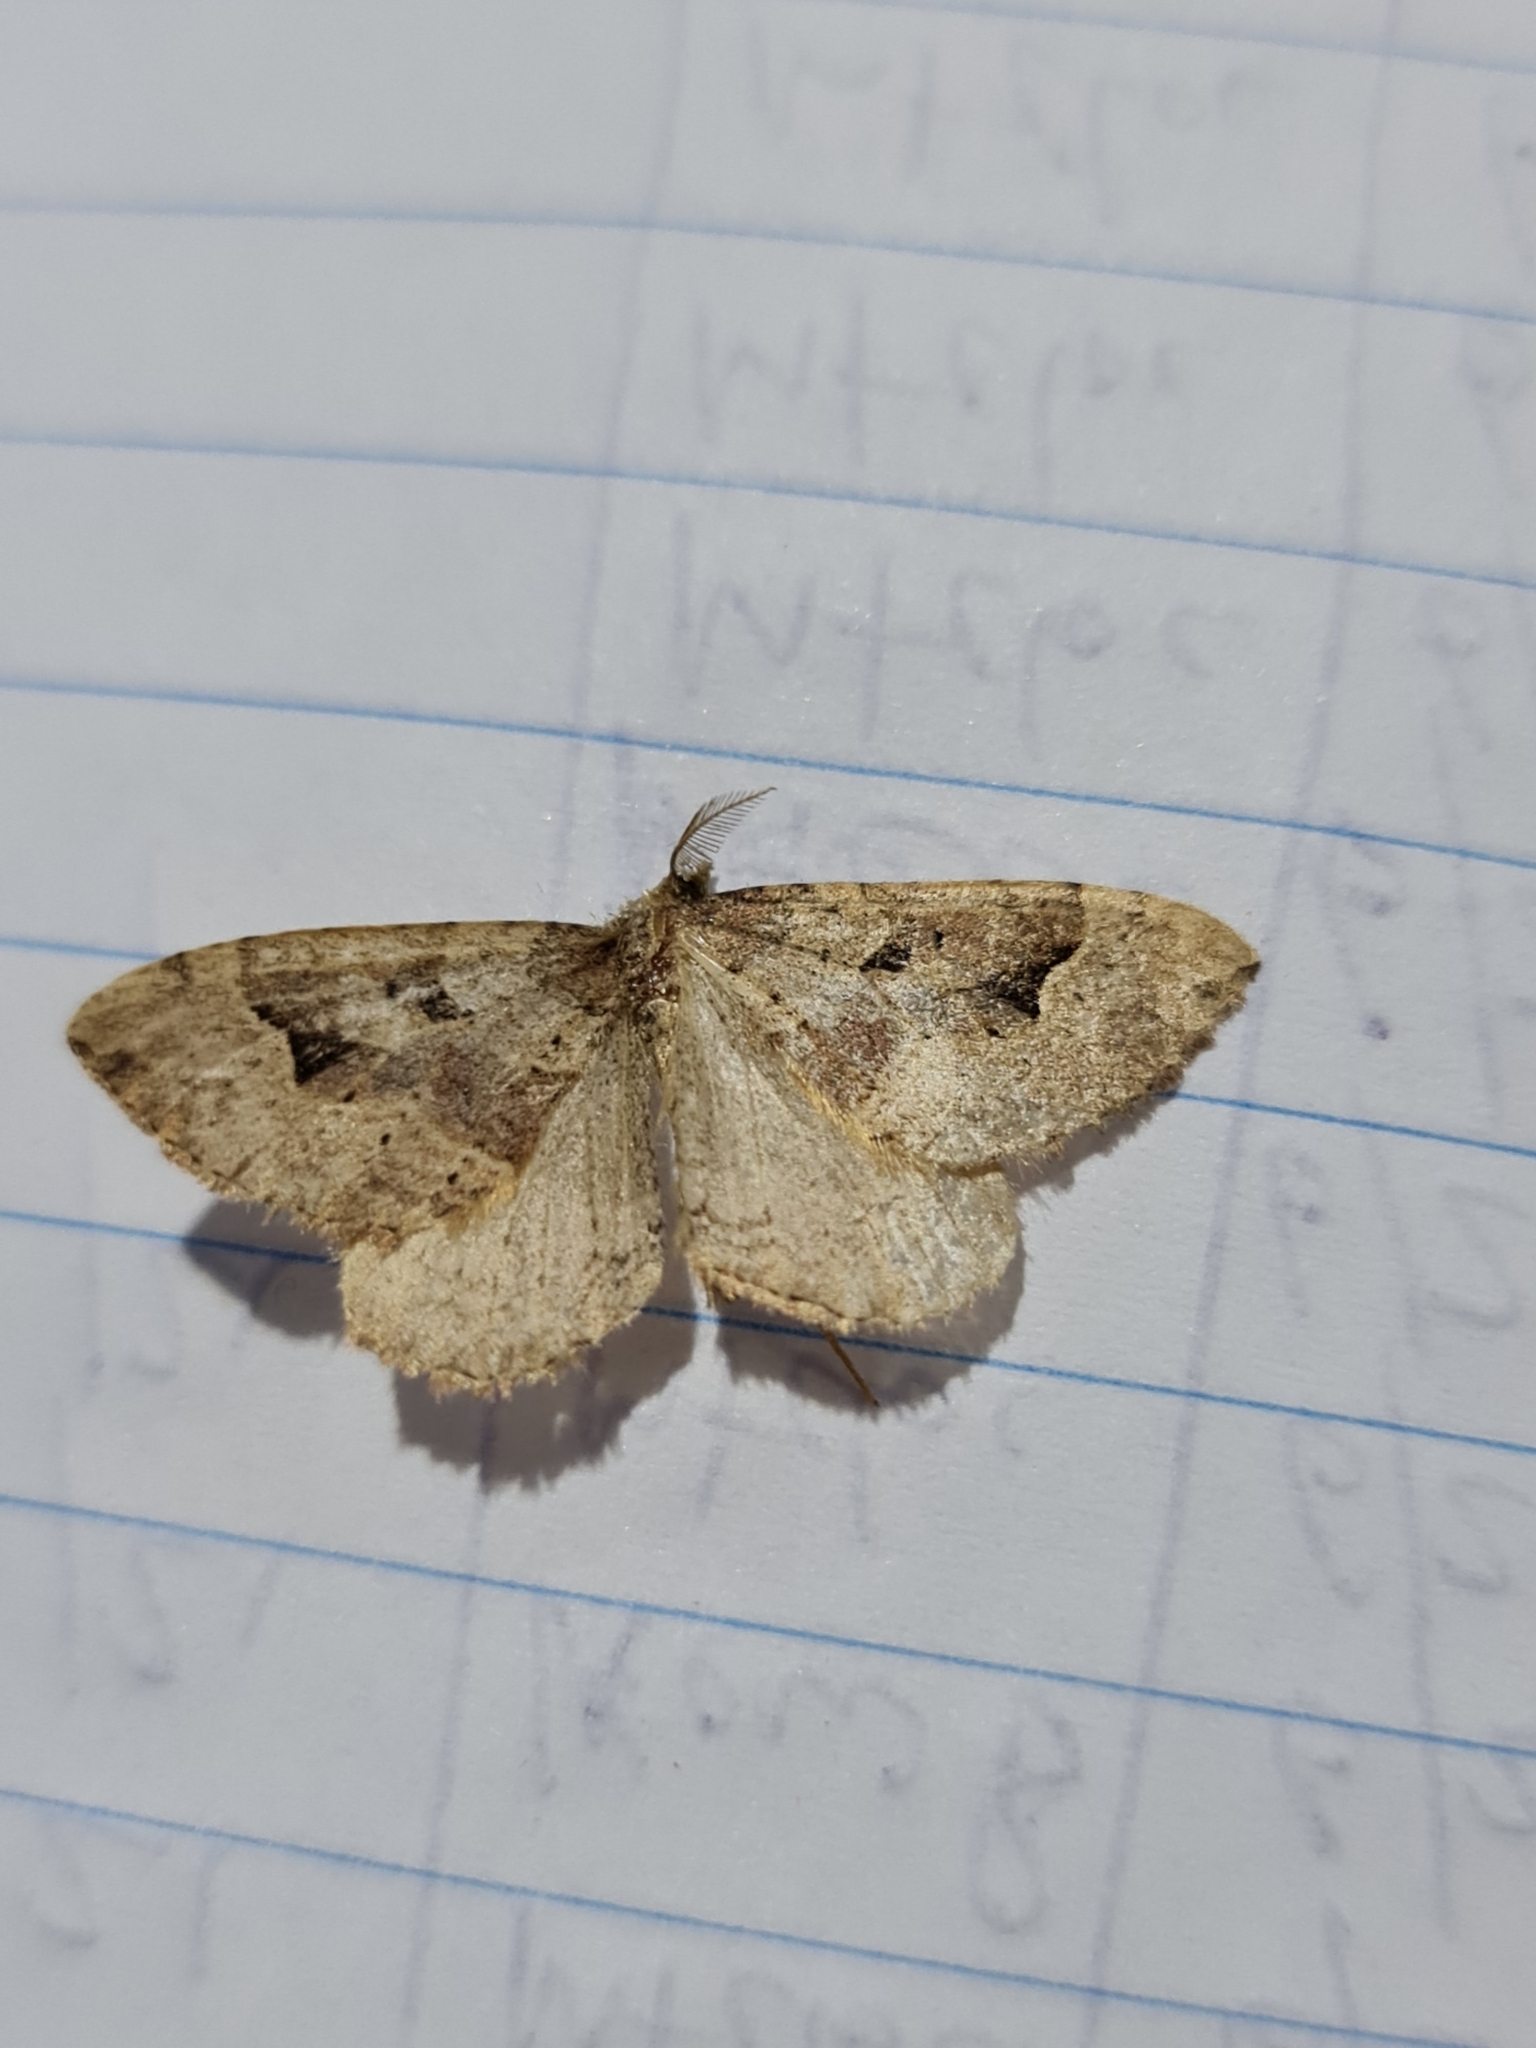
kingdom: Animalia
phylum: Arthropoda
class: Insecta
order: Lepidoptera
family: Geometridae
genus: Epyaxa
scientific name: Epyaxa rosearia
